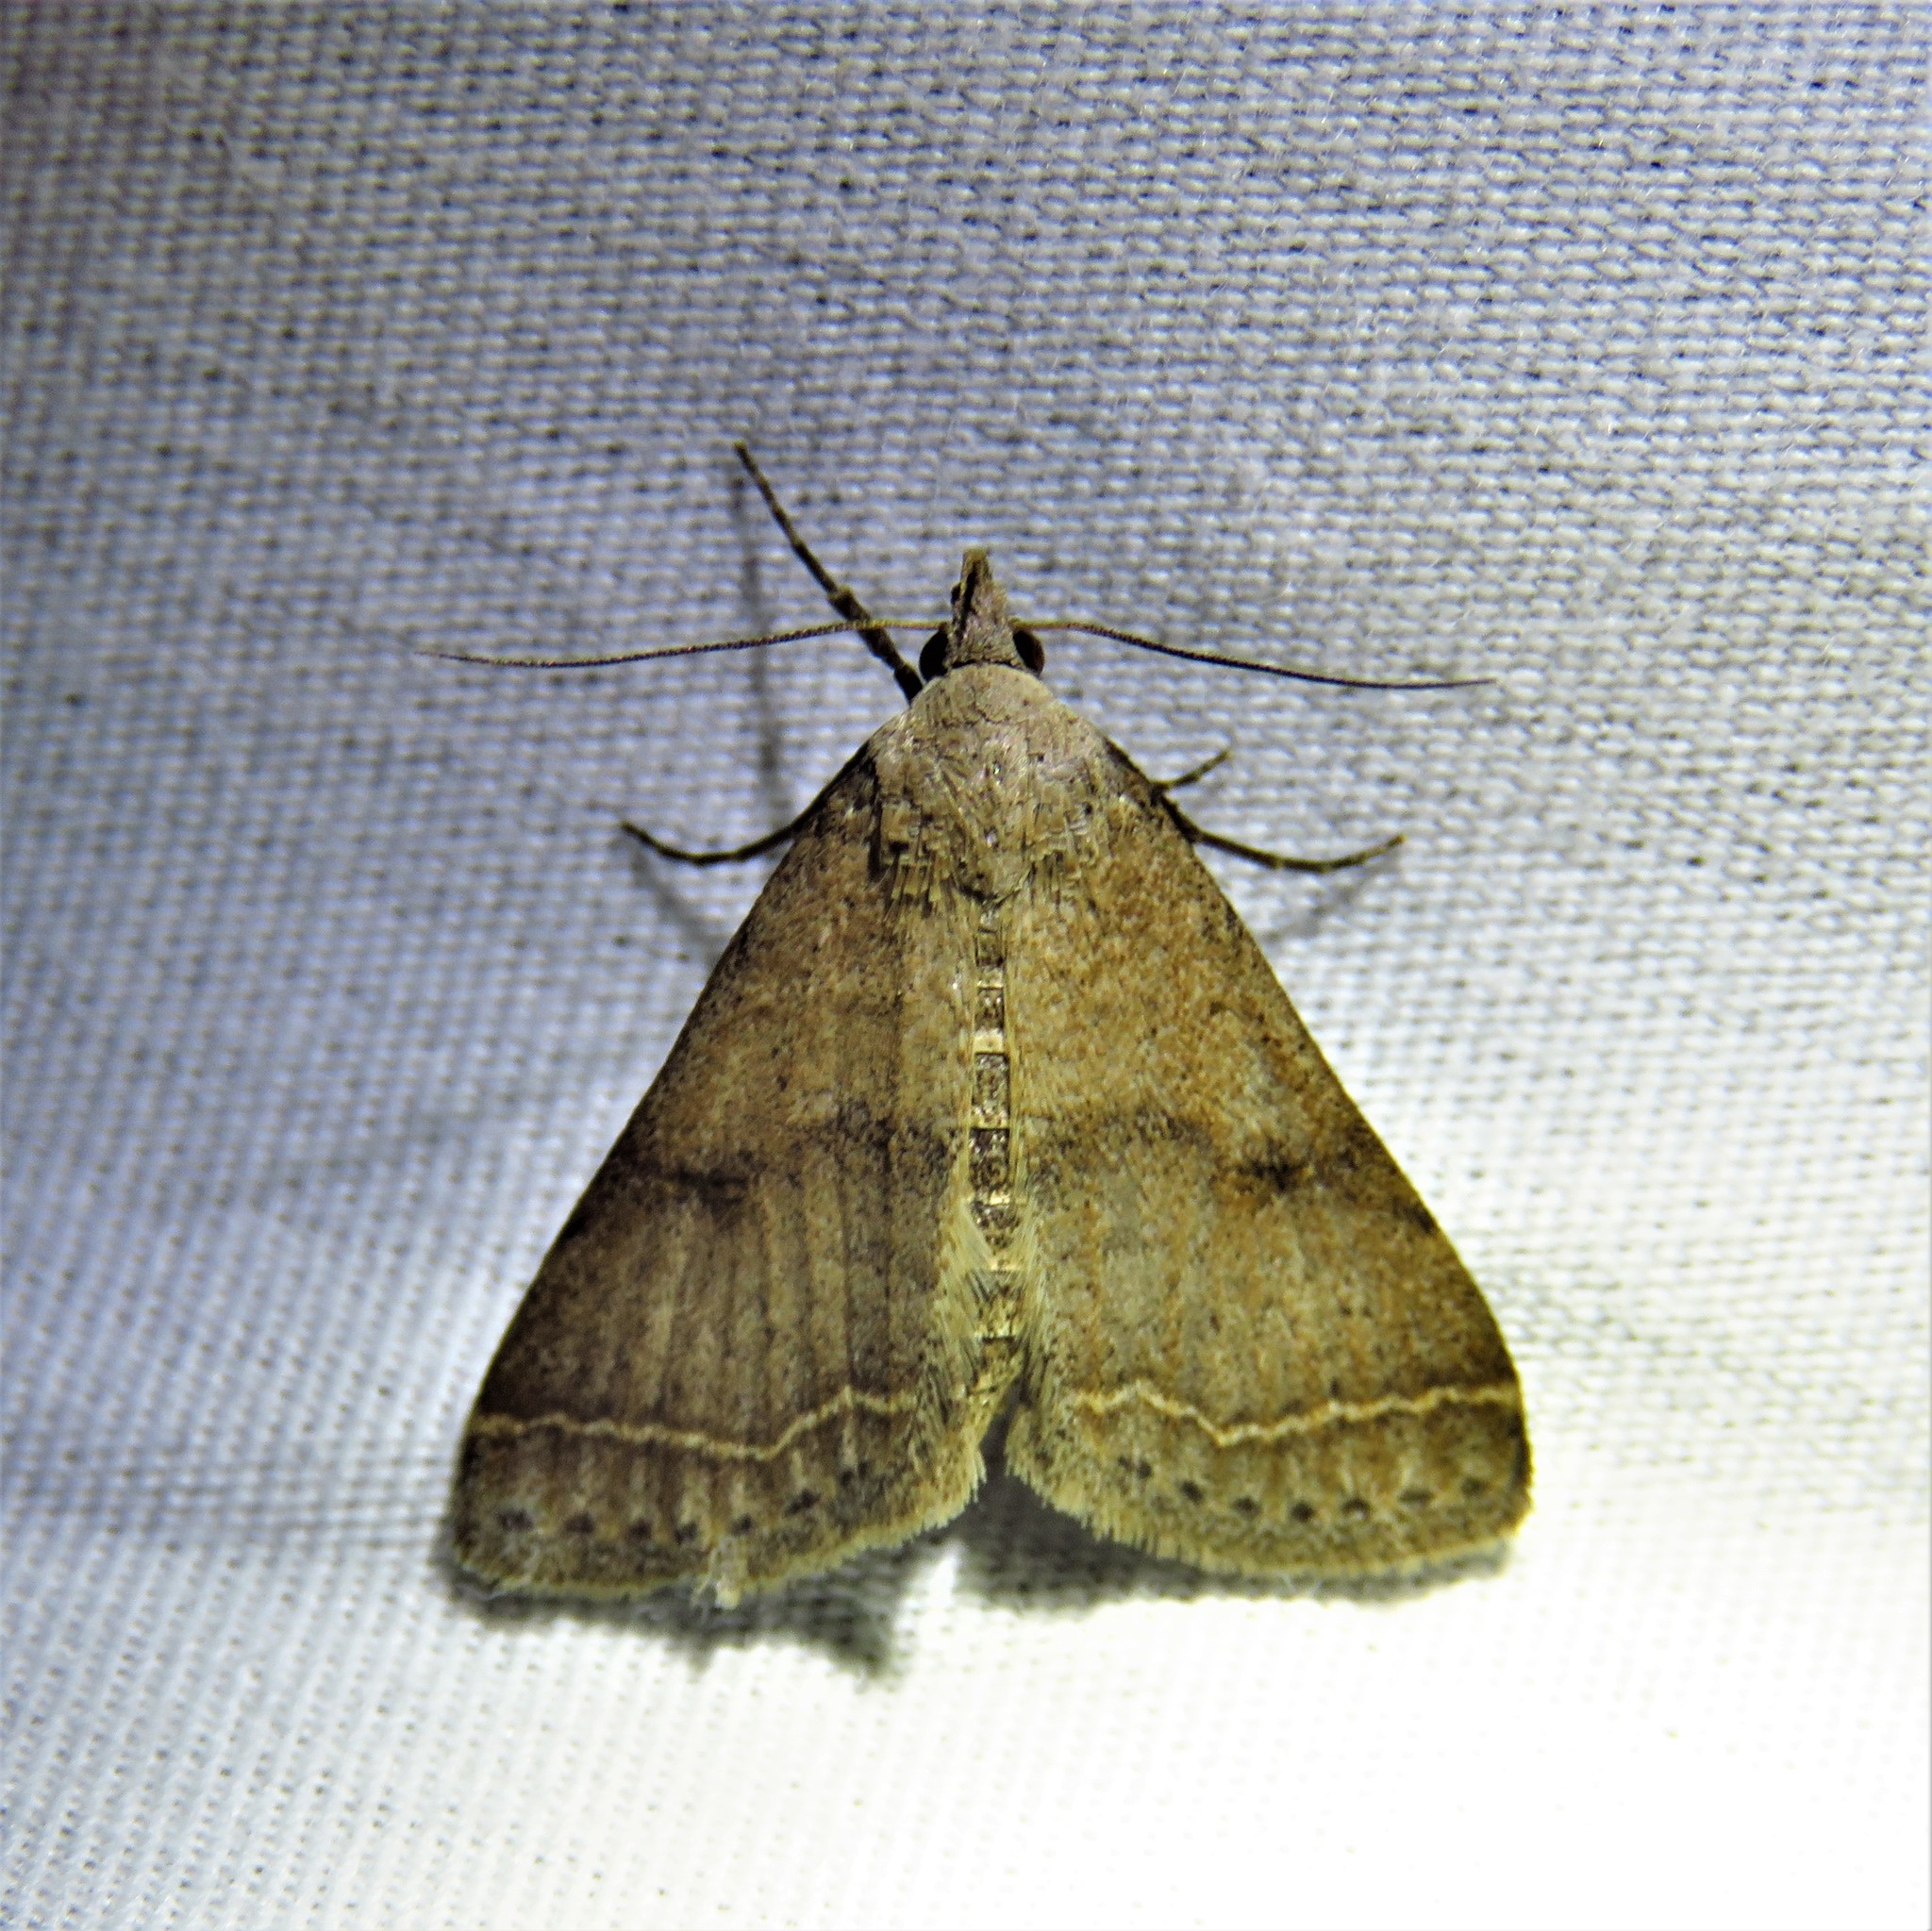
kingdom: Animalia
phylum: Arthropoda
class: Insecta
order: Lepidoptera
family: Erebidae
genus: Bleptina
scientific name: Bleptina caradrinalis
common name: Bent-winged owlet
